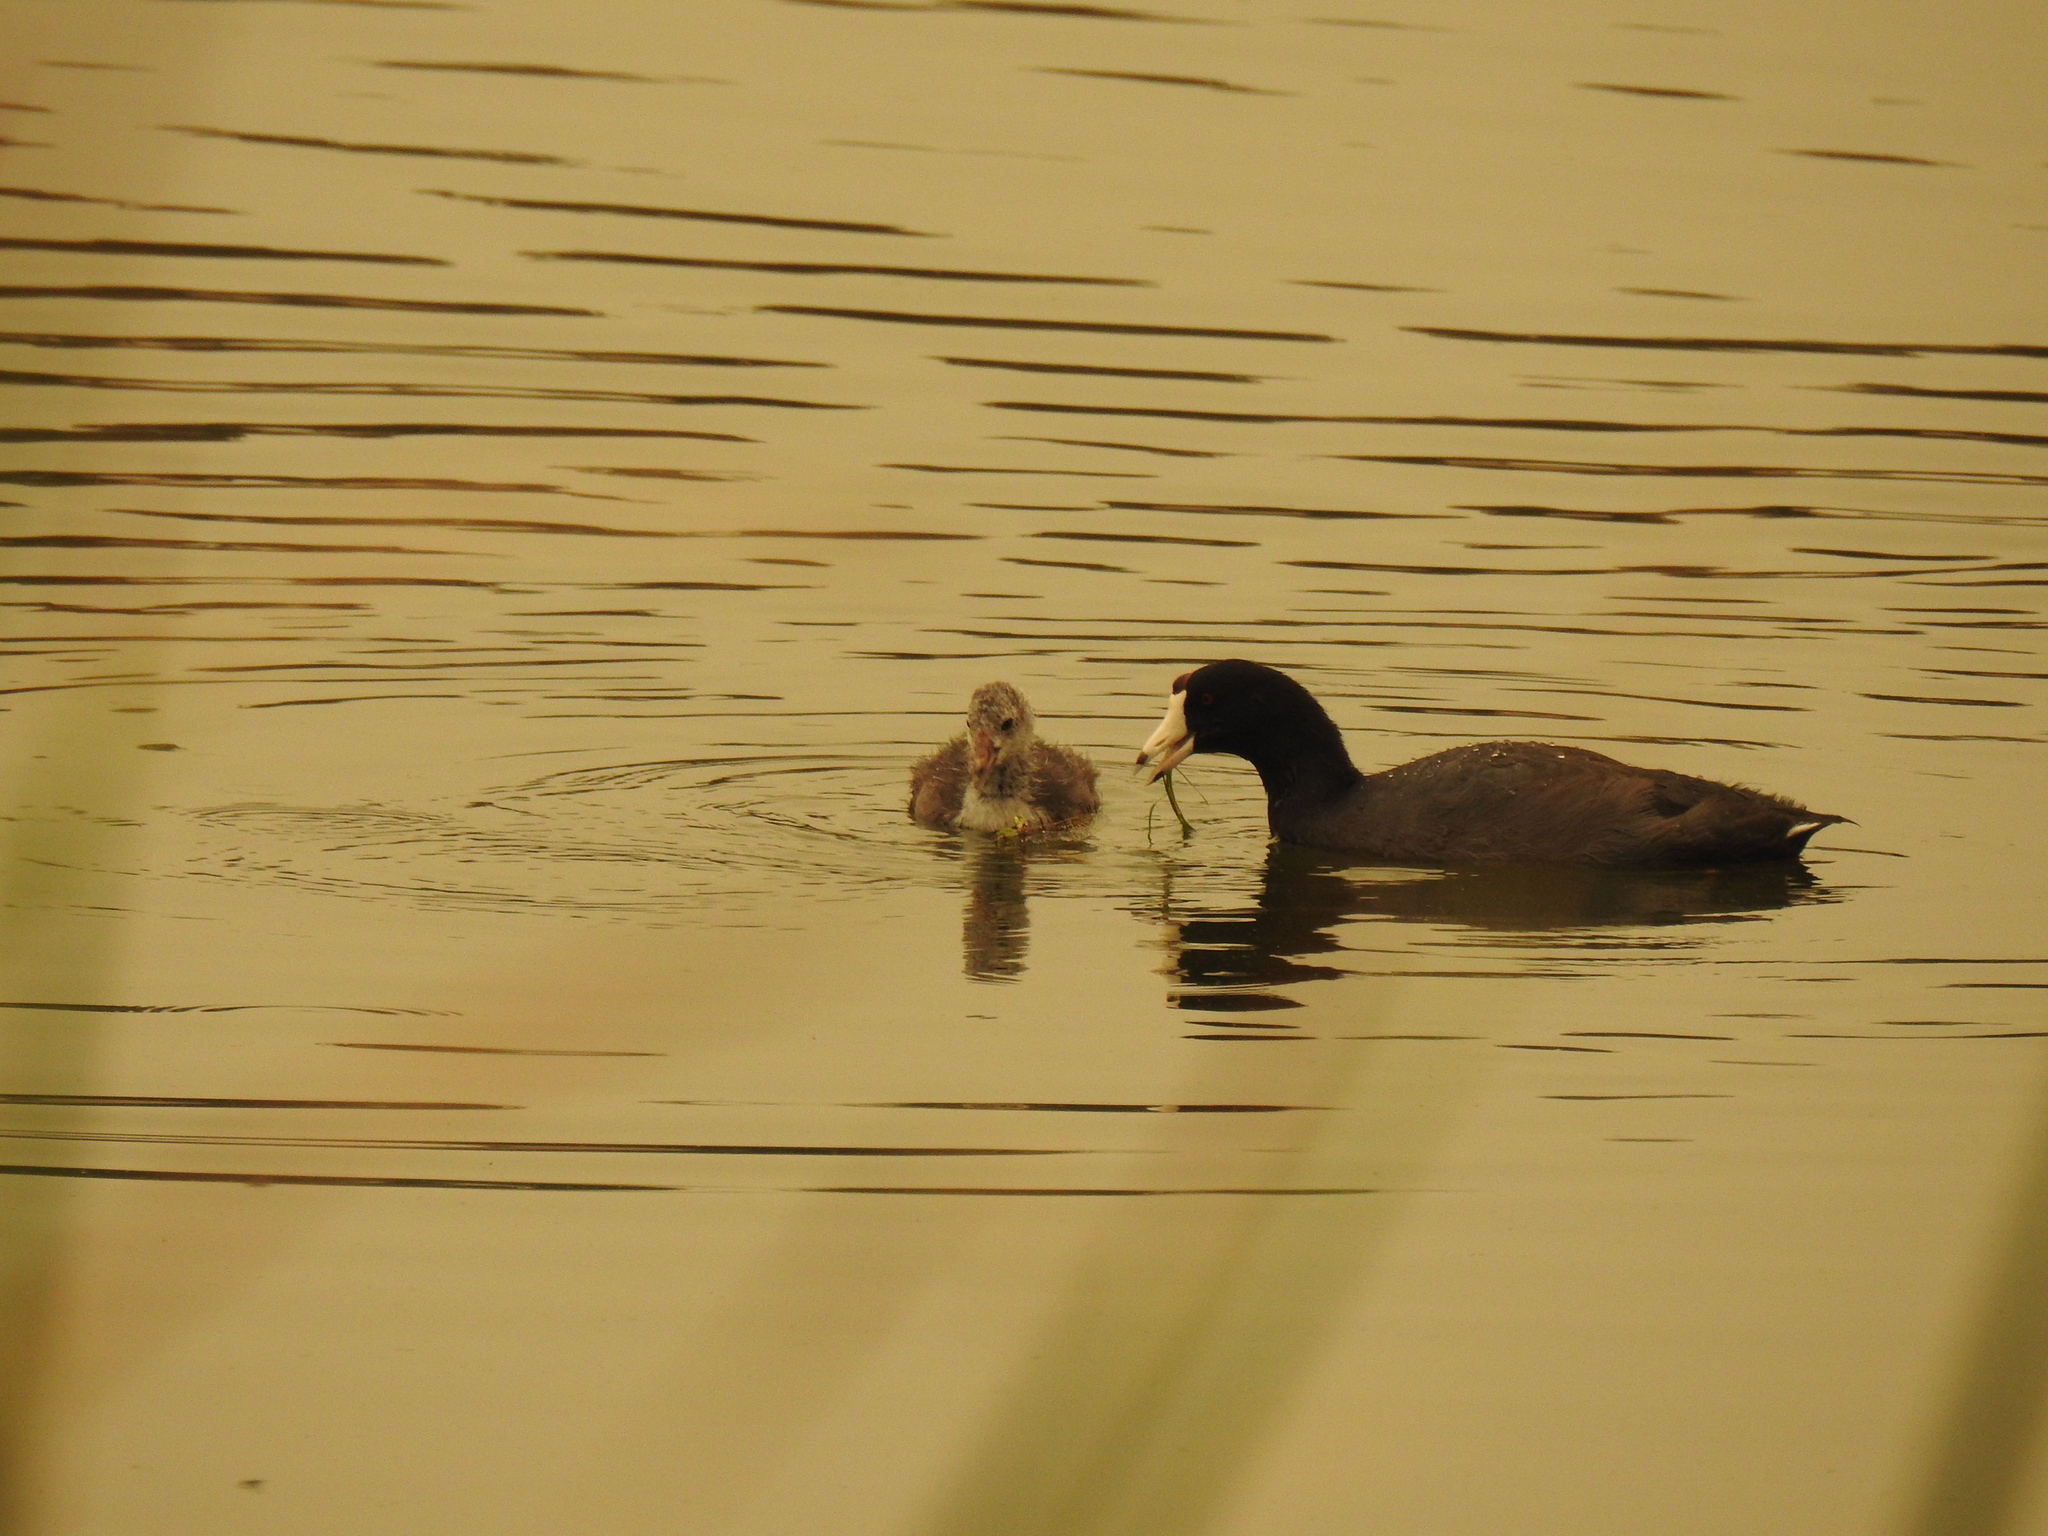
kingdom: Animalia
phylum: Chordata
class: Aves
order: Gruiformes
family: Rallidae
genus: Fulica
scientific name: Fulica americana
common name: American coot
